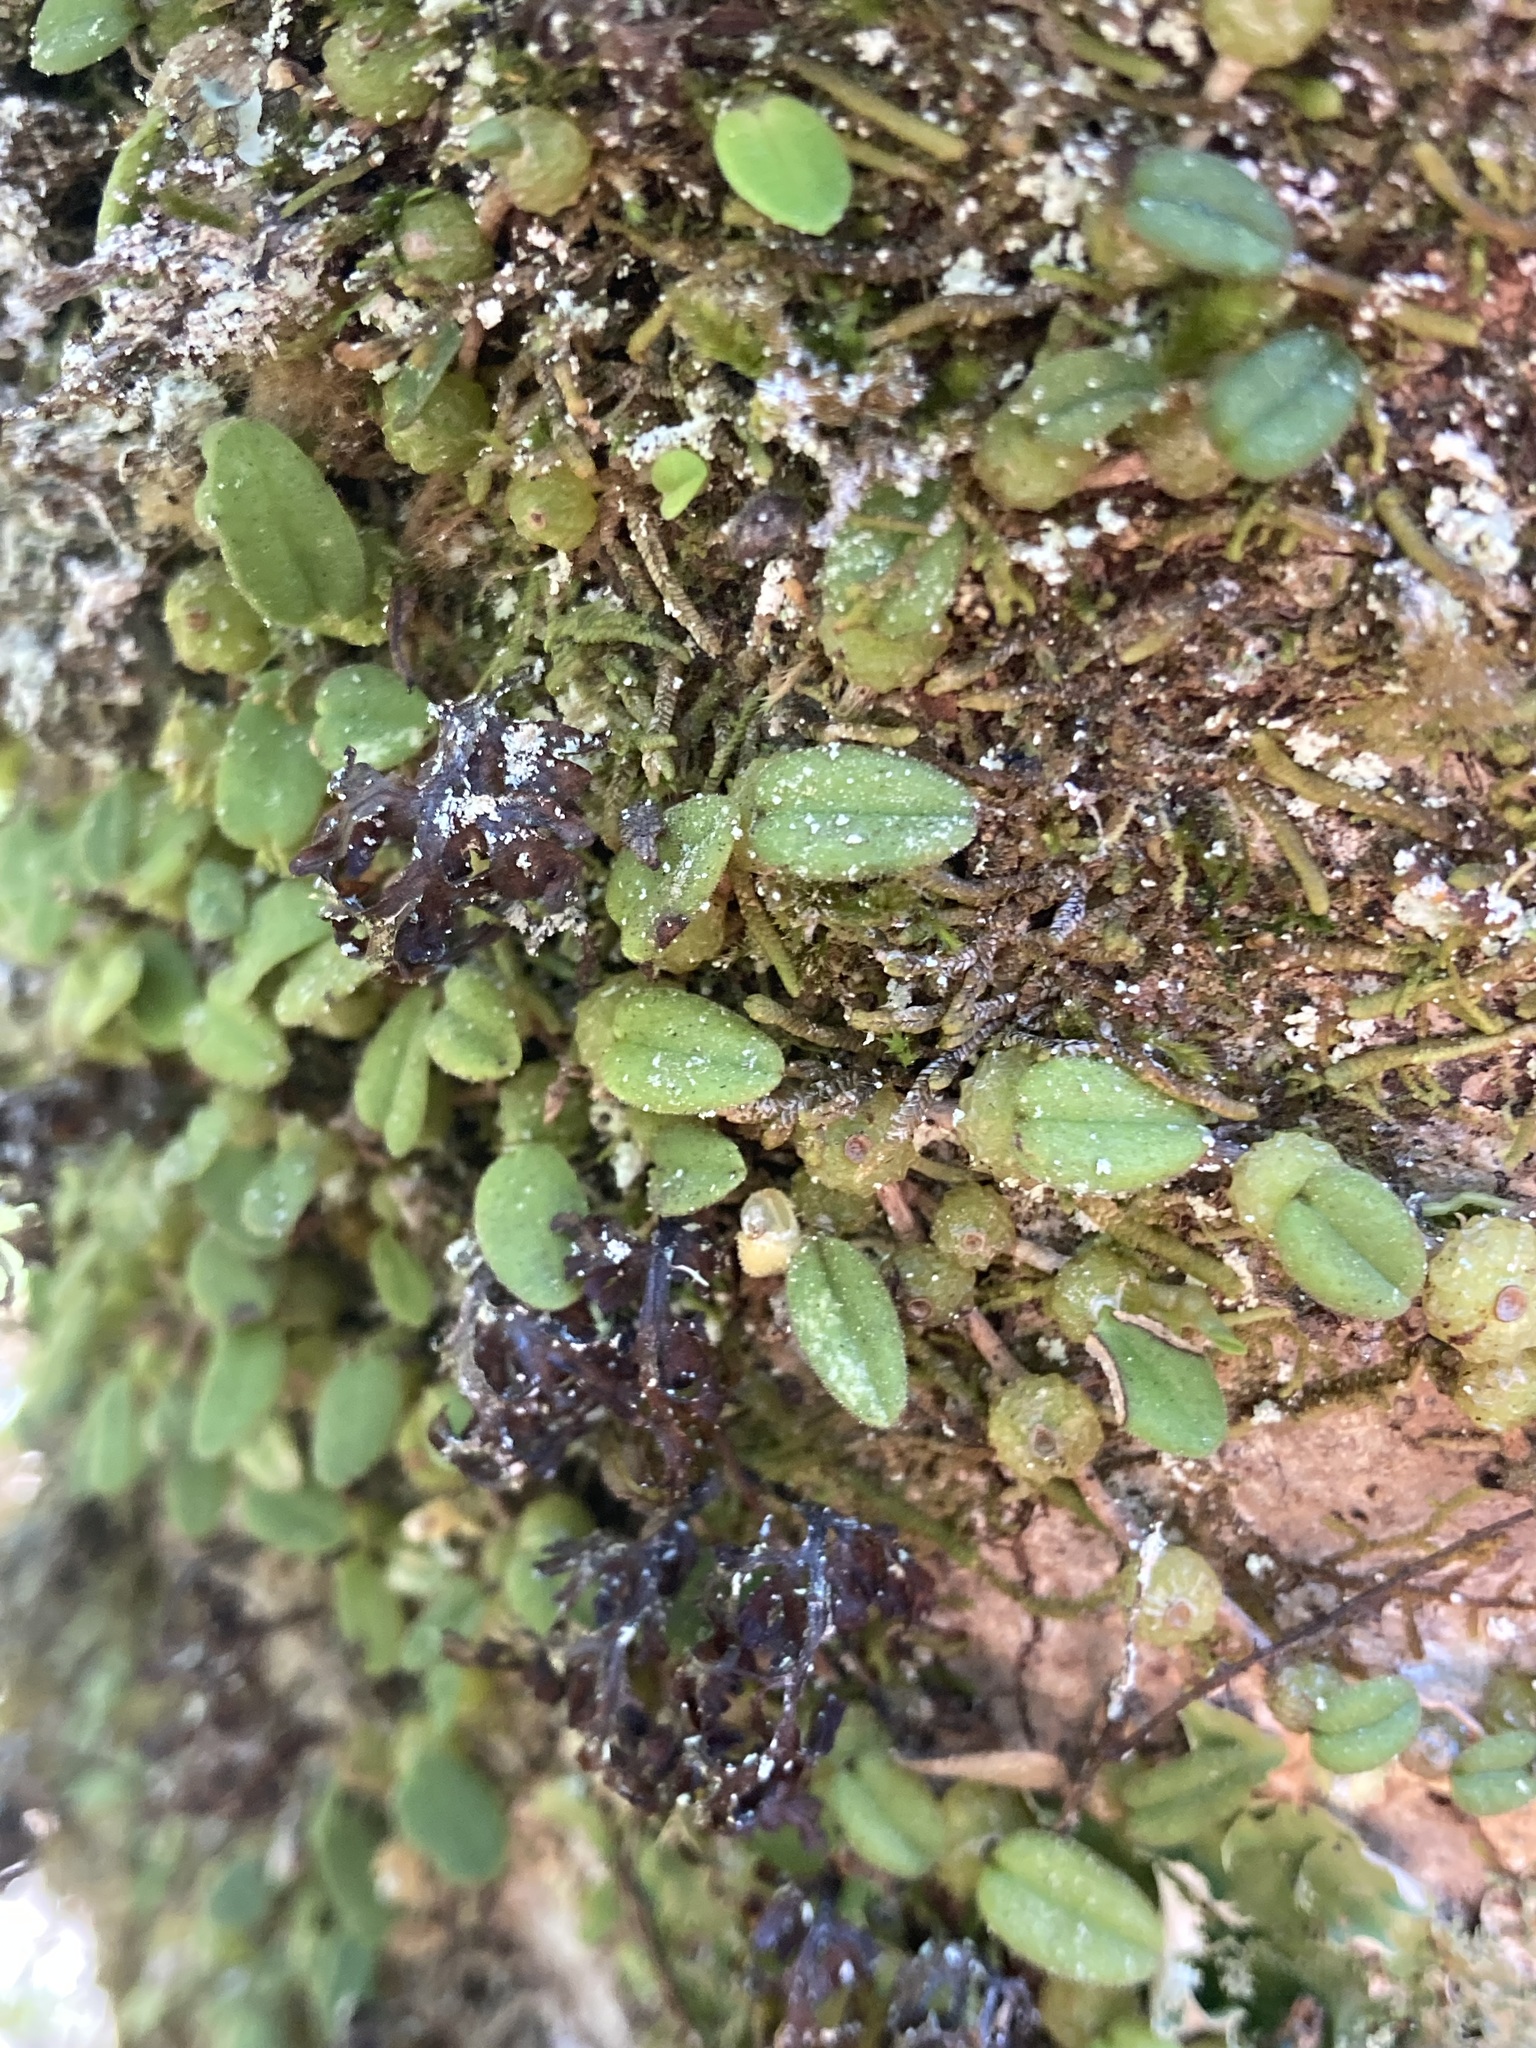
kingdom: Plantae
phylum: Tracheophyta
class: Liliopsida
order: Asparagales
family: Orchidaceae
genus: Bulbophyllum
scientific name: Bulbophyllum pygmaeum
